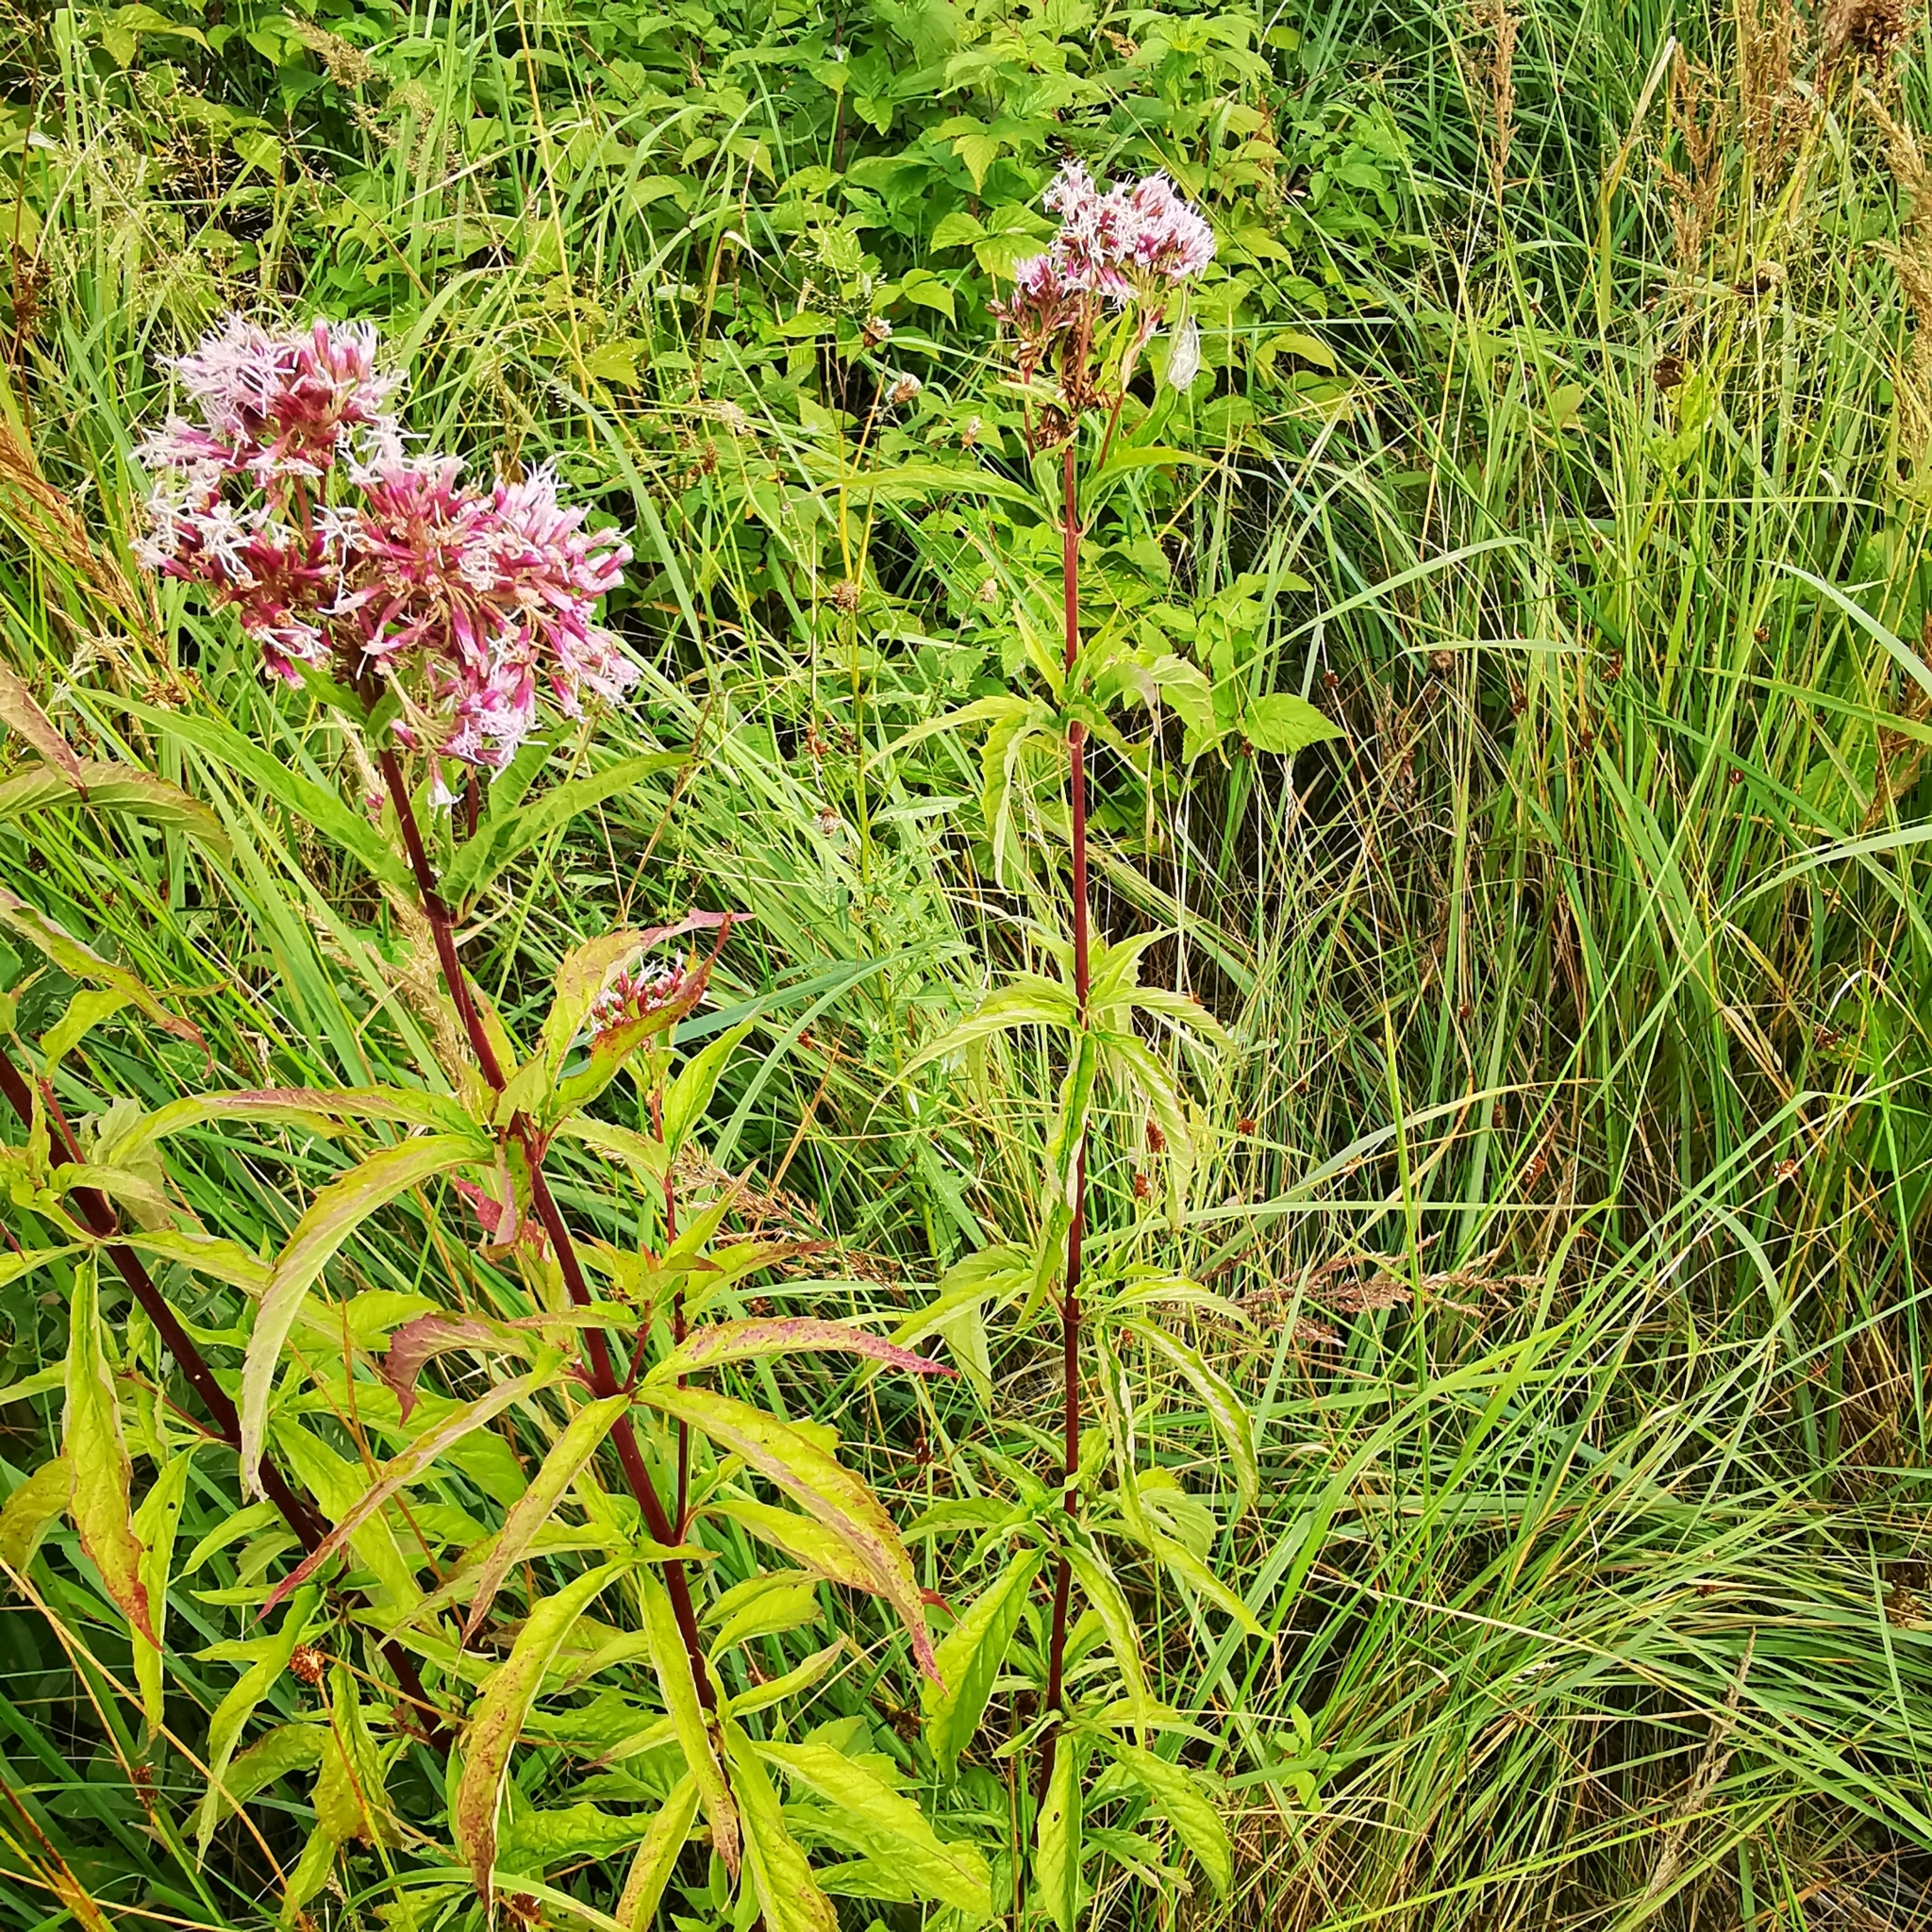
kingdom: Plantae
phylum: Tracheophyta
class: Magnoliopsida
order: Asterales
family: Asteraceae
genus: Eupatorium
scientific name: Eupatorium cannabinum
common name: Hemp-agrimony
